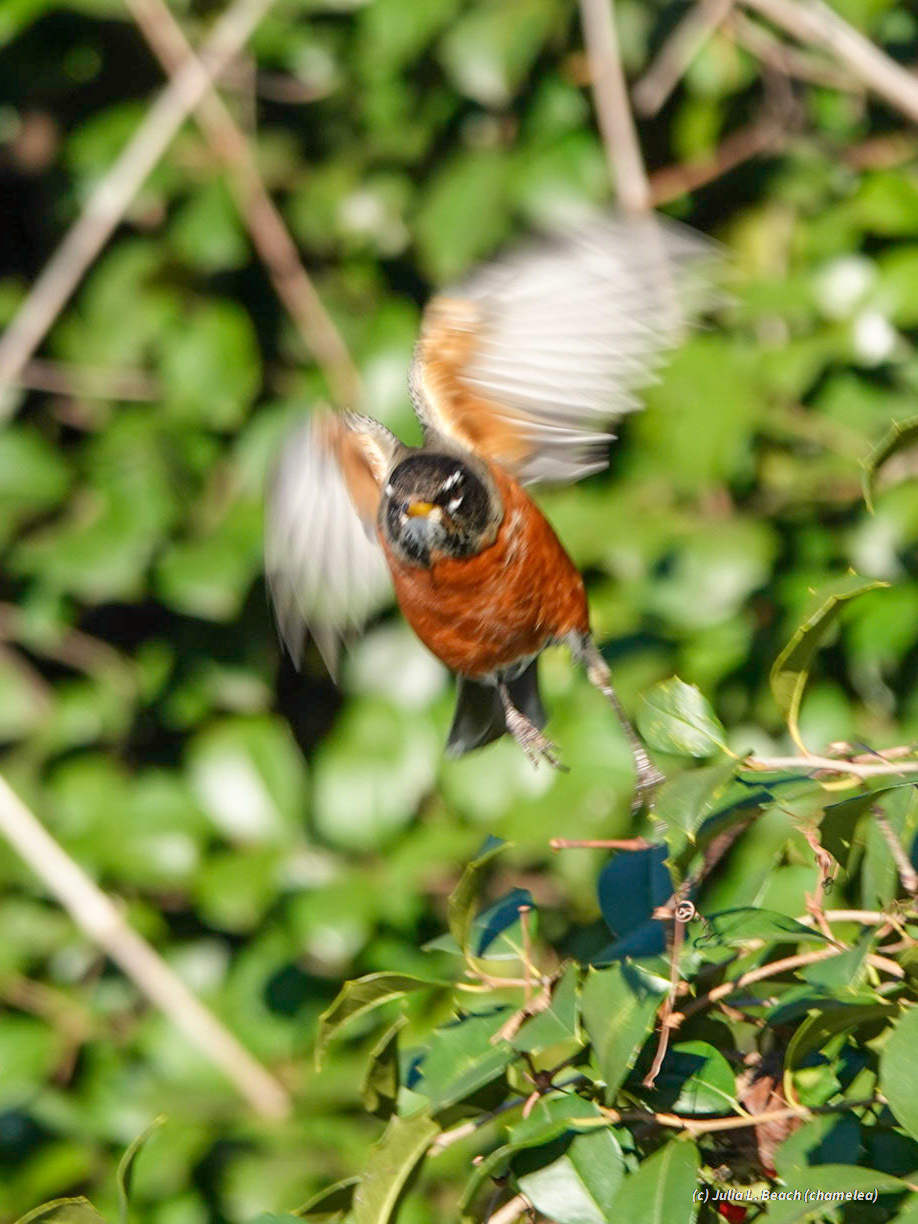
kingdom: Animalia
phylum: Chordata
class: Aves
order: Passeriformes
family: Turdidae
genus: Turdus
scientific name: Turdus migratorius
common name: American robin
